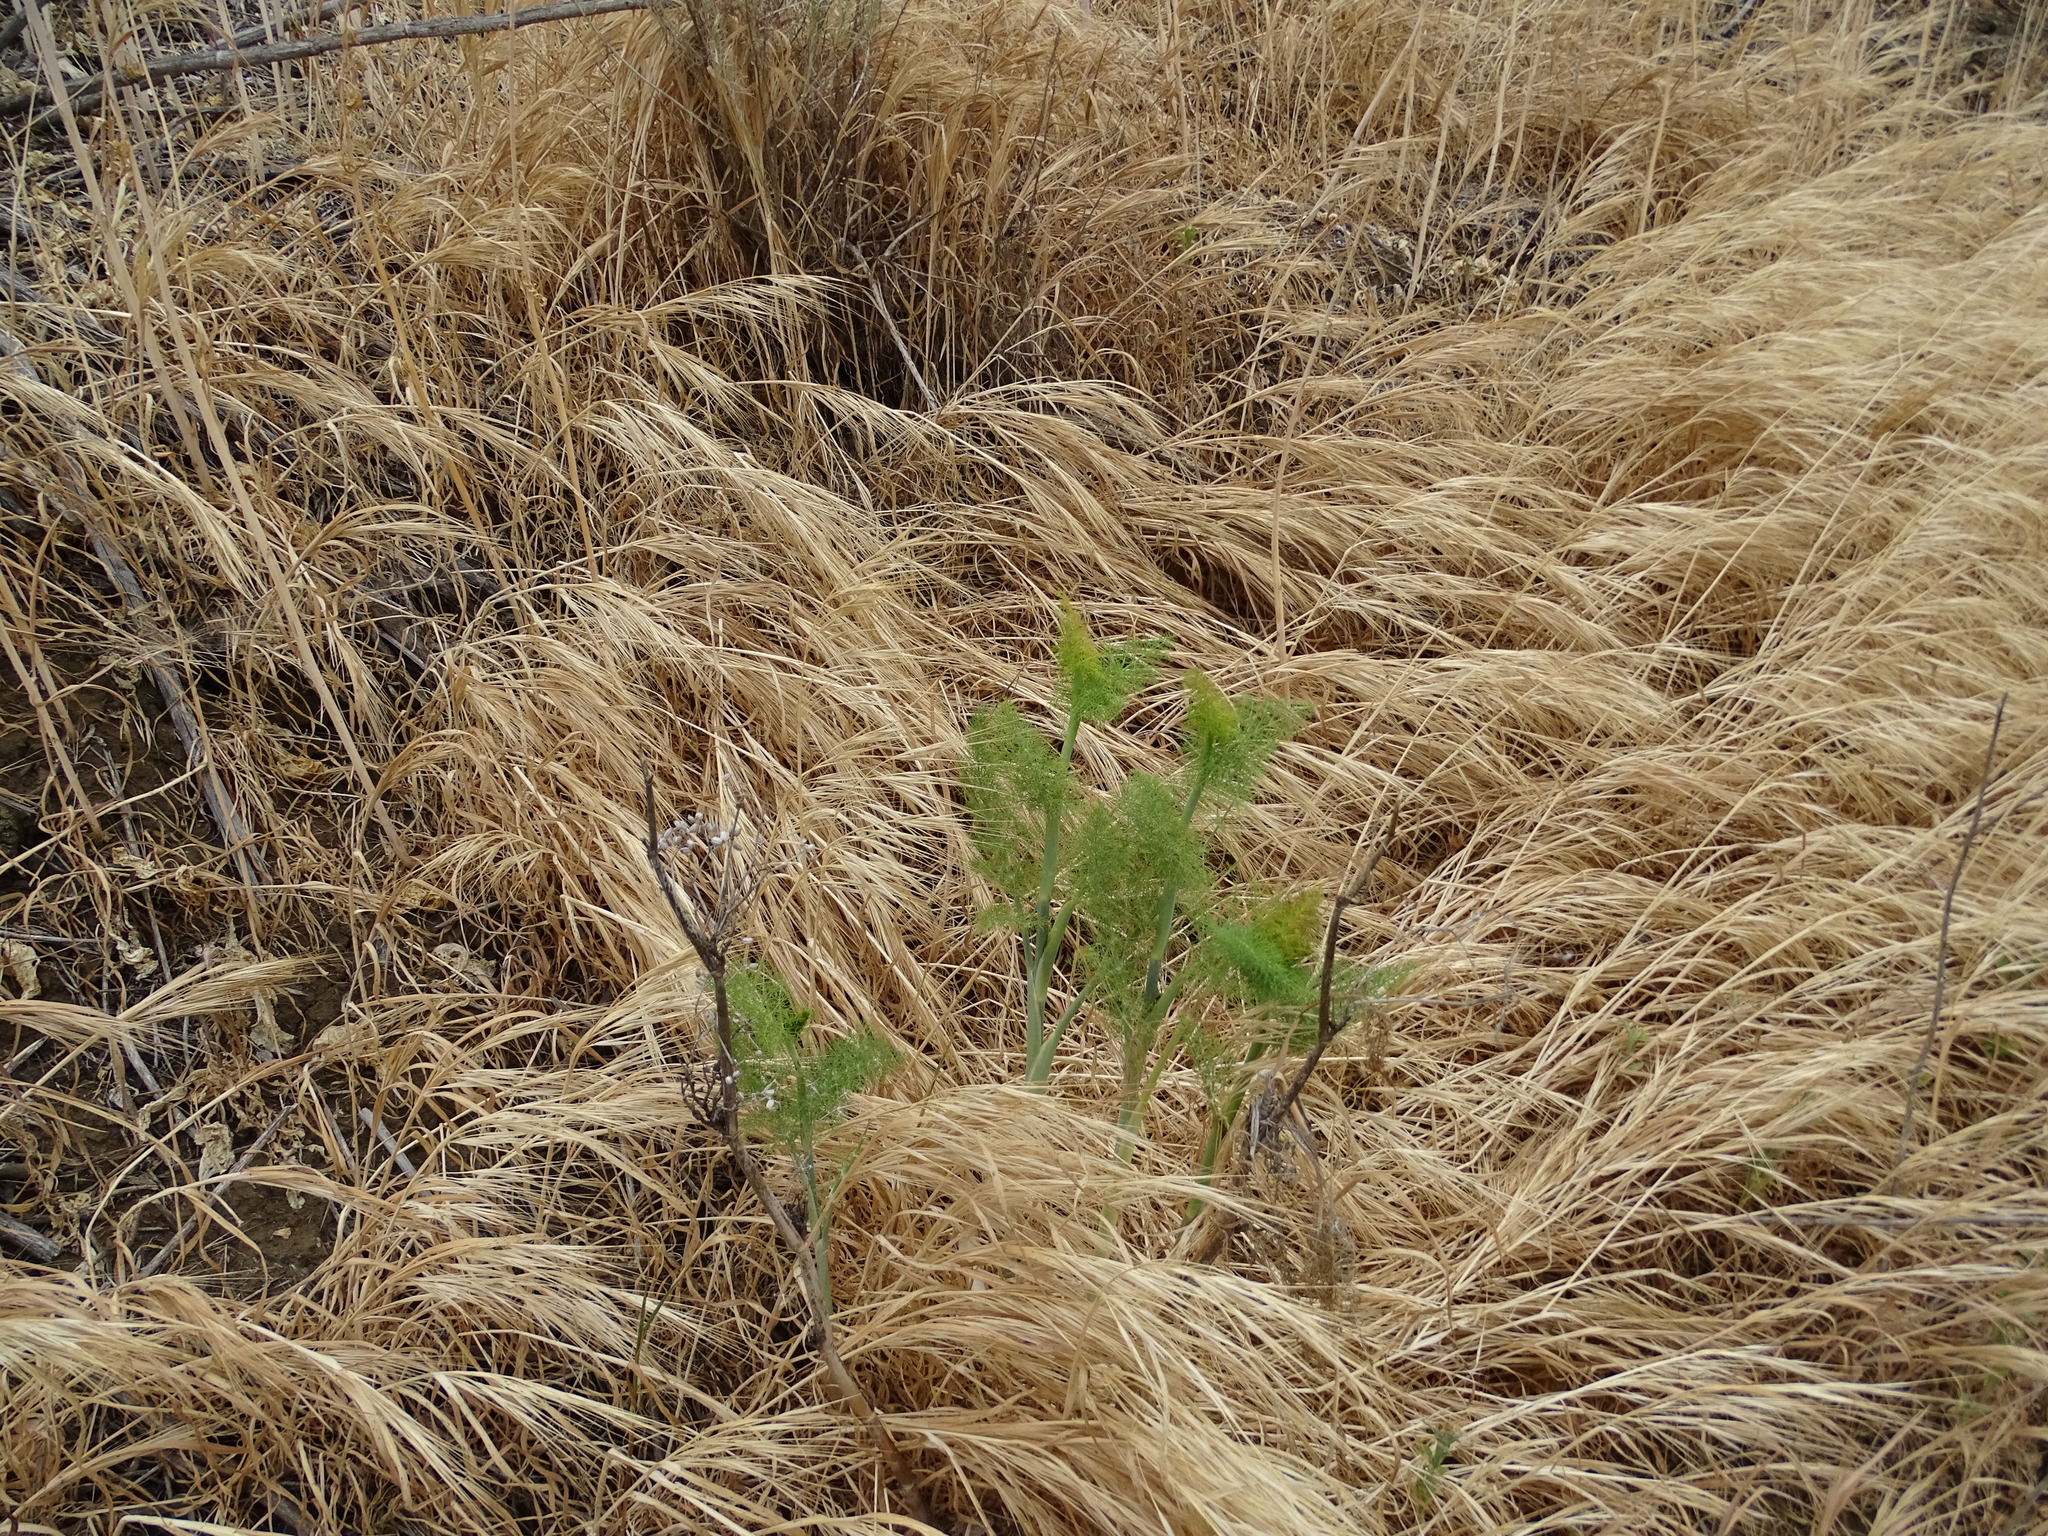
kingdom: Plantae
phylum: Tracheophyta
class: Magnoliopsida
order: Apiales
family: Apiaceae
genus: Foeniculum
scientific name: Foeniculum vulgare
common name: Fennel
